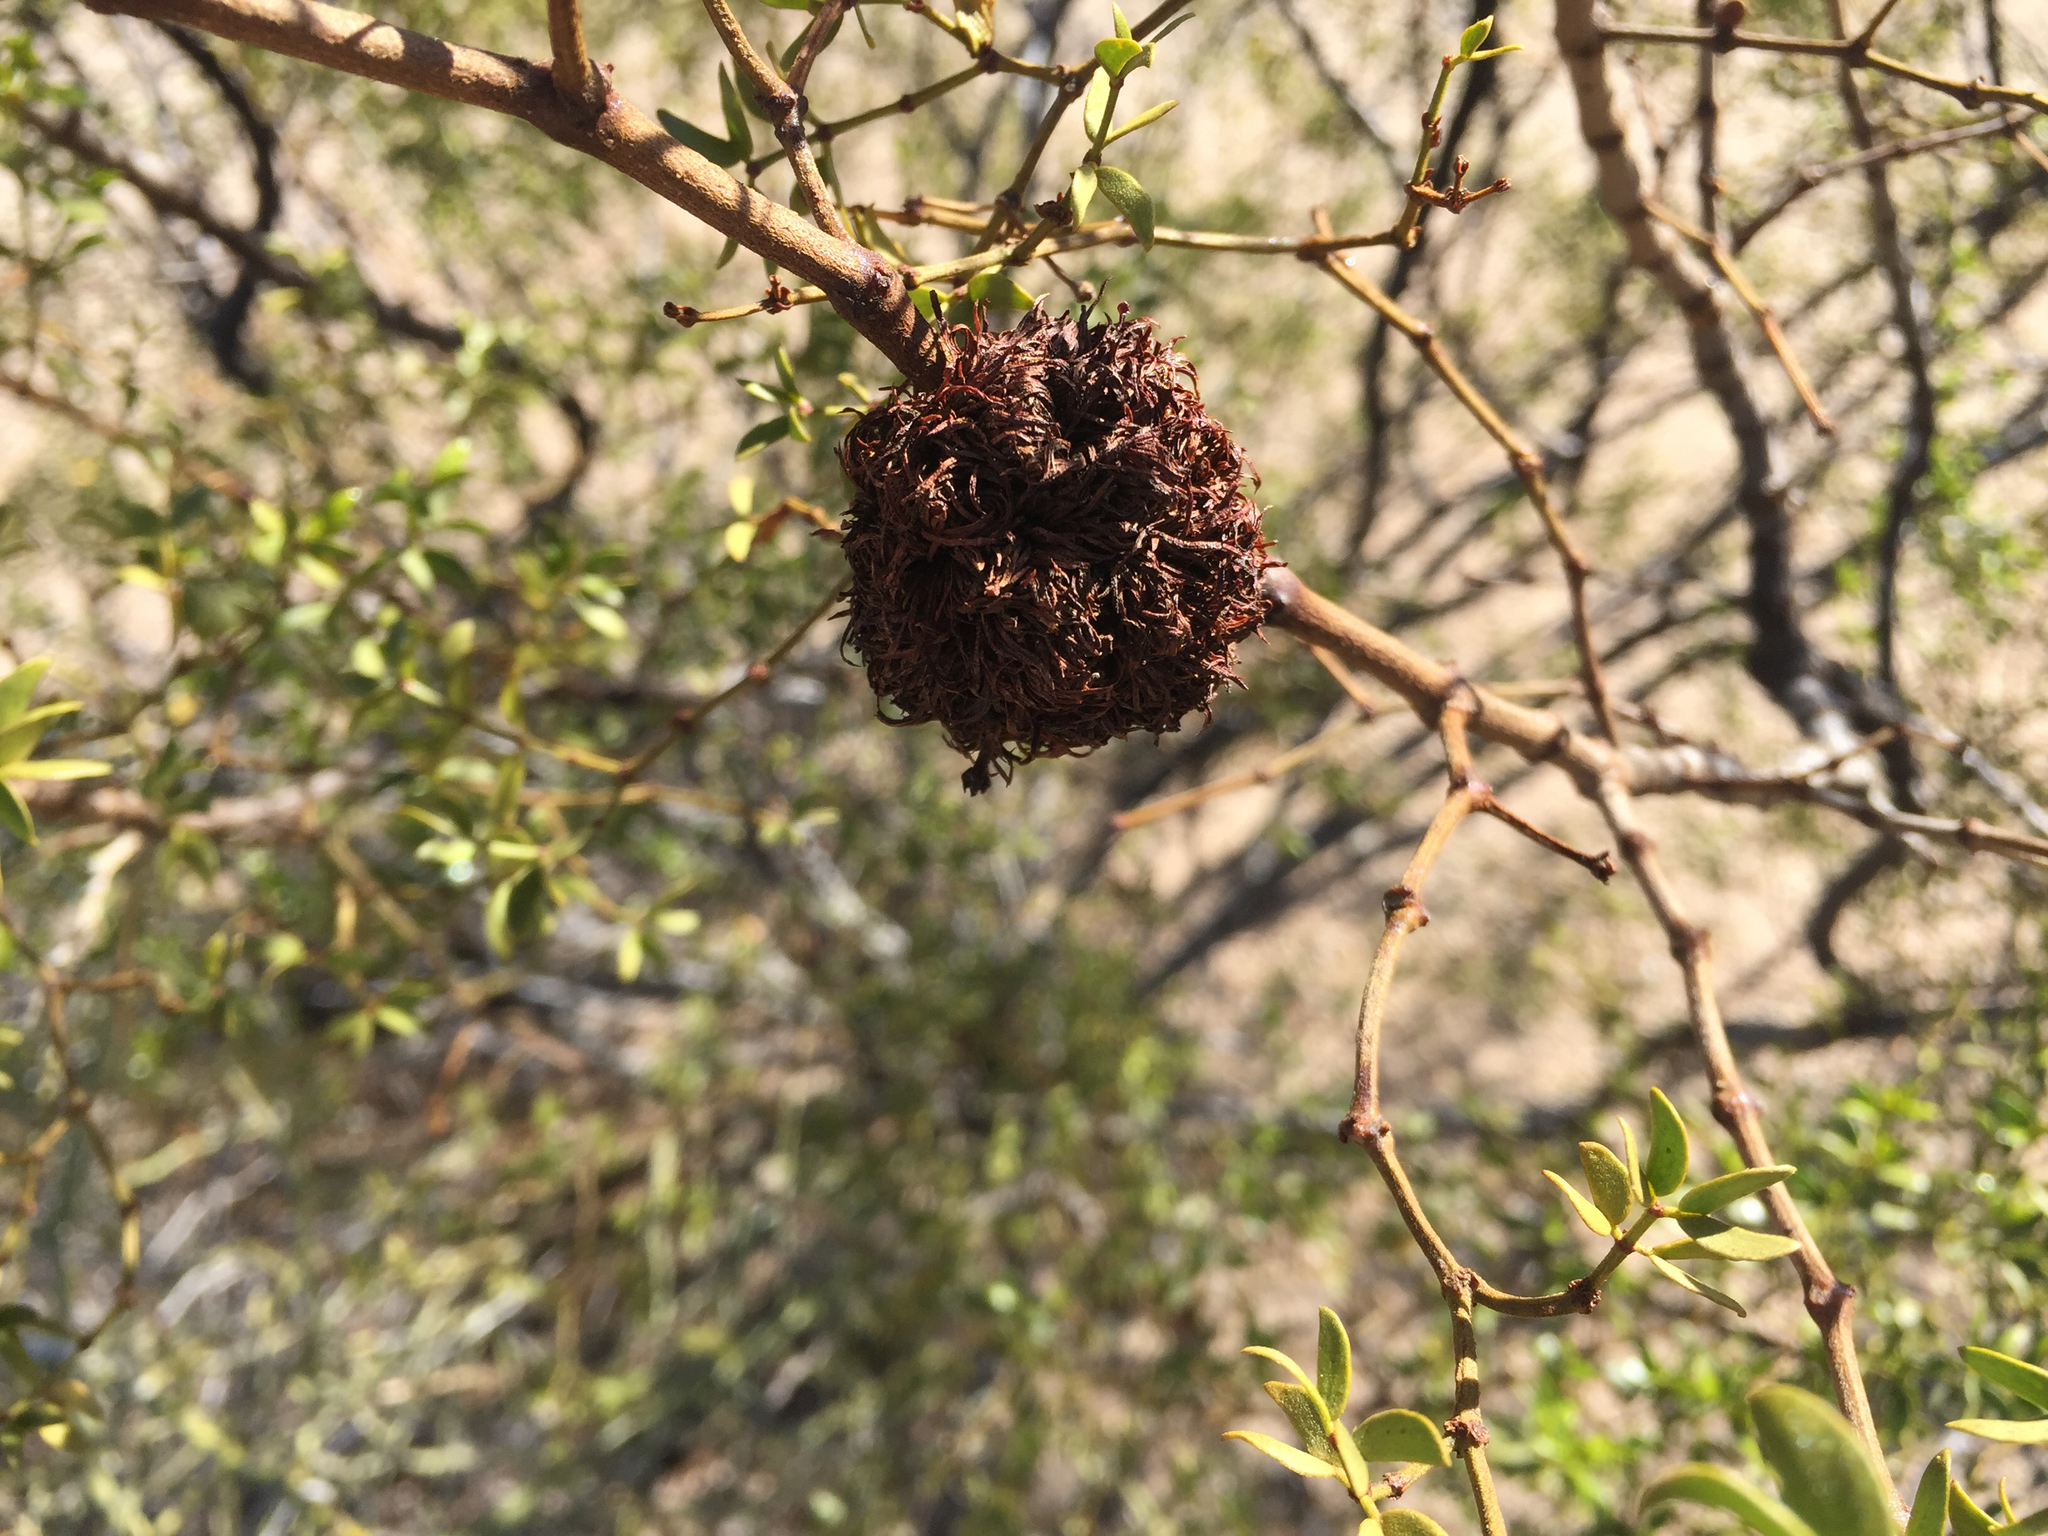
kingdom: Animalia
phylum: Arthropoda
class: Insecta
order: Diptera
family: Cecidomyiidae
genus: Asphondylia
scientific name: Asphondylia auripila
